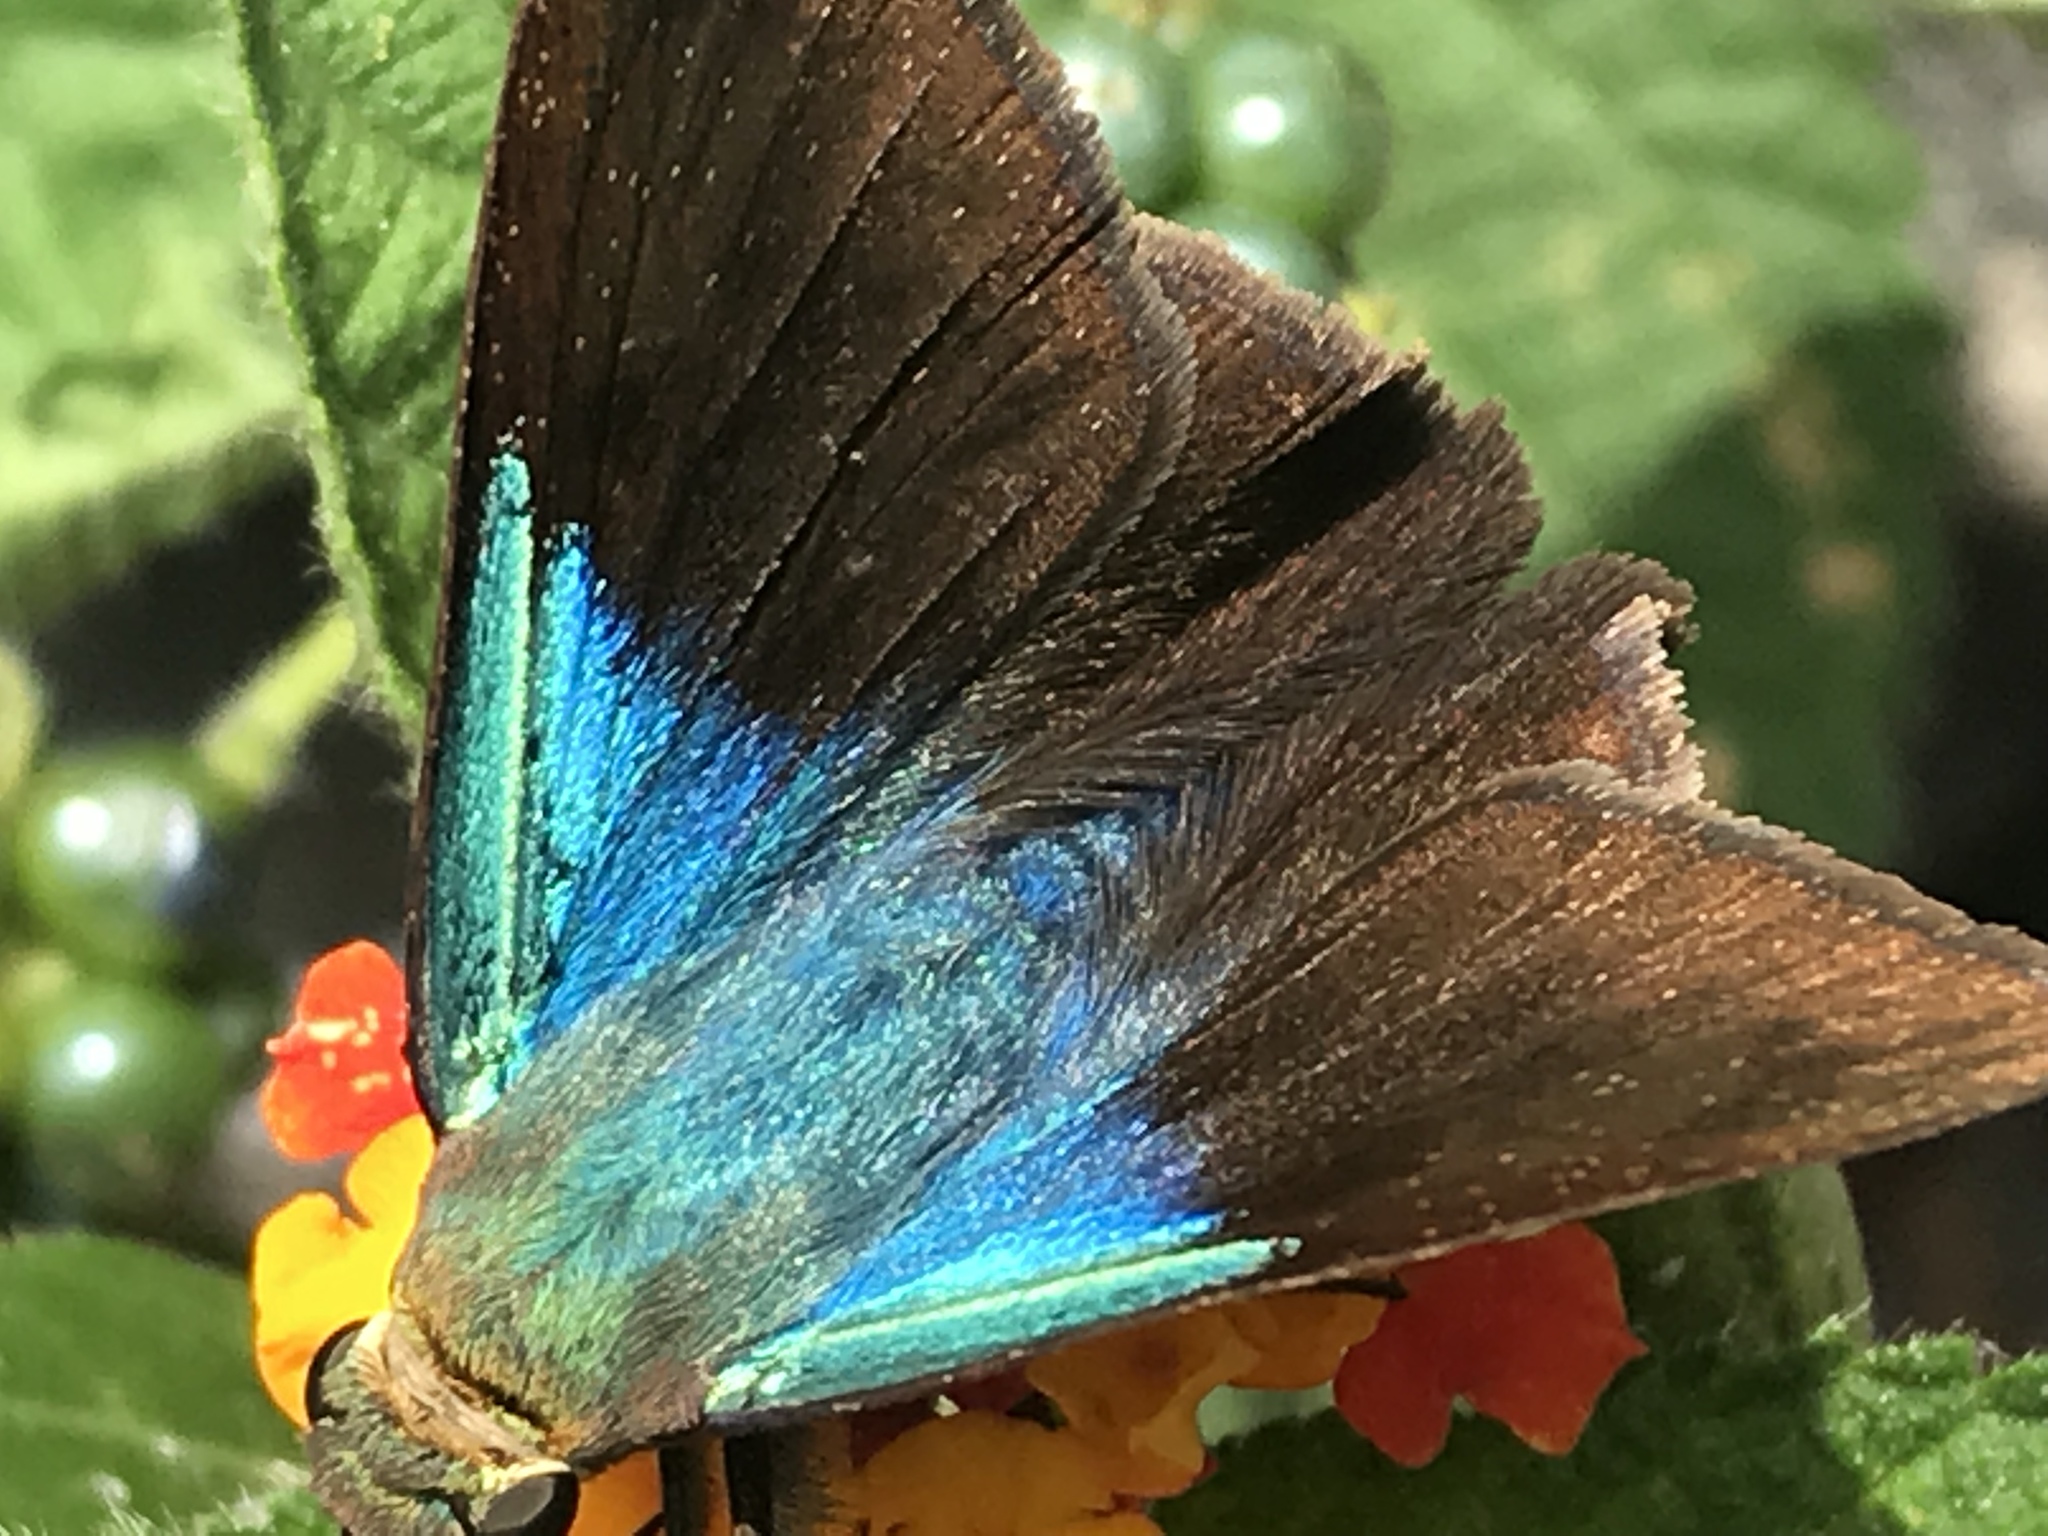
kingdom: Animalia
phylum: Arthropoda
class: Insecta
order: Lepidoptera
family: Hesperiidae
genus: Astraptes
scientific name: Astraptes alector
